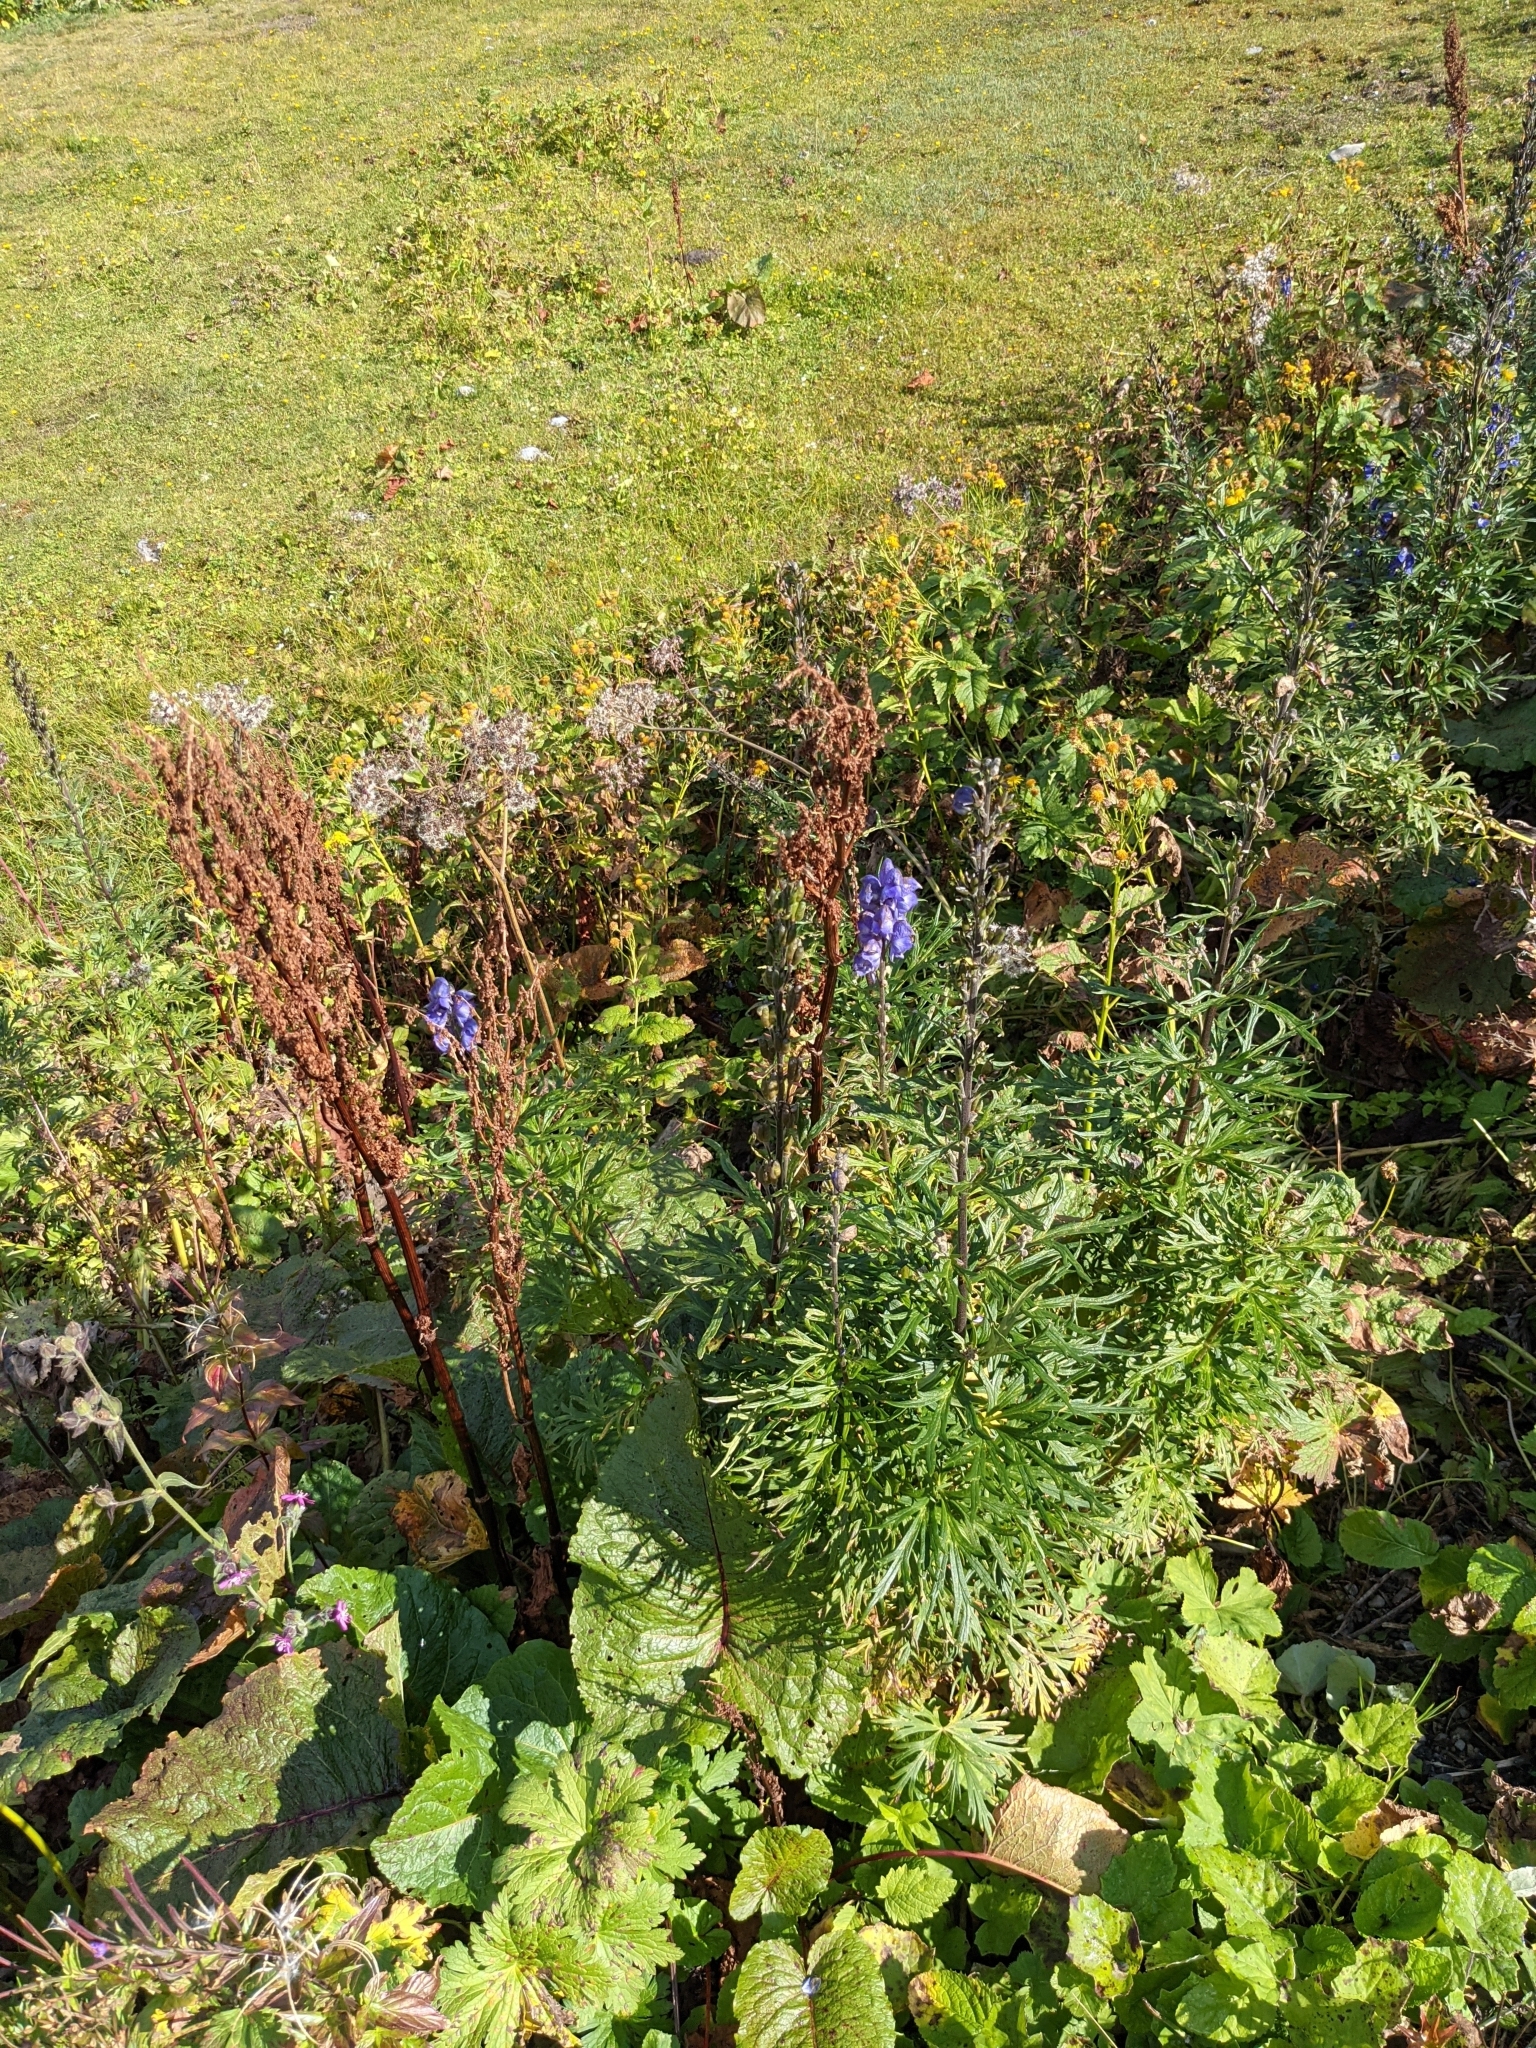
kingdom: Plantae
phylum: Tracheophyta
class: Magnoliopsida
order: Ranunculales
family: Ranunculaceae
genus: Aconitum
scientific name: Aconitum napellus
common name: Garden monkshood
